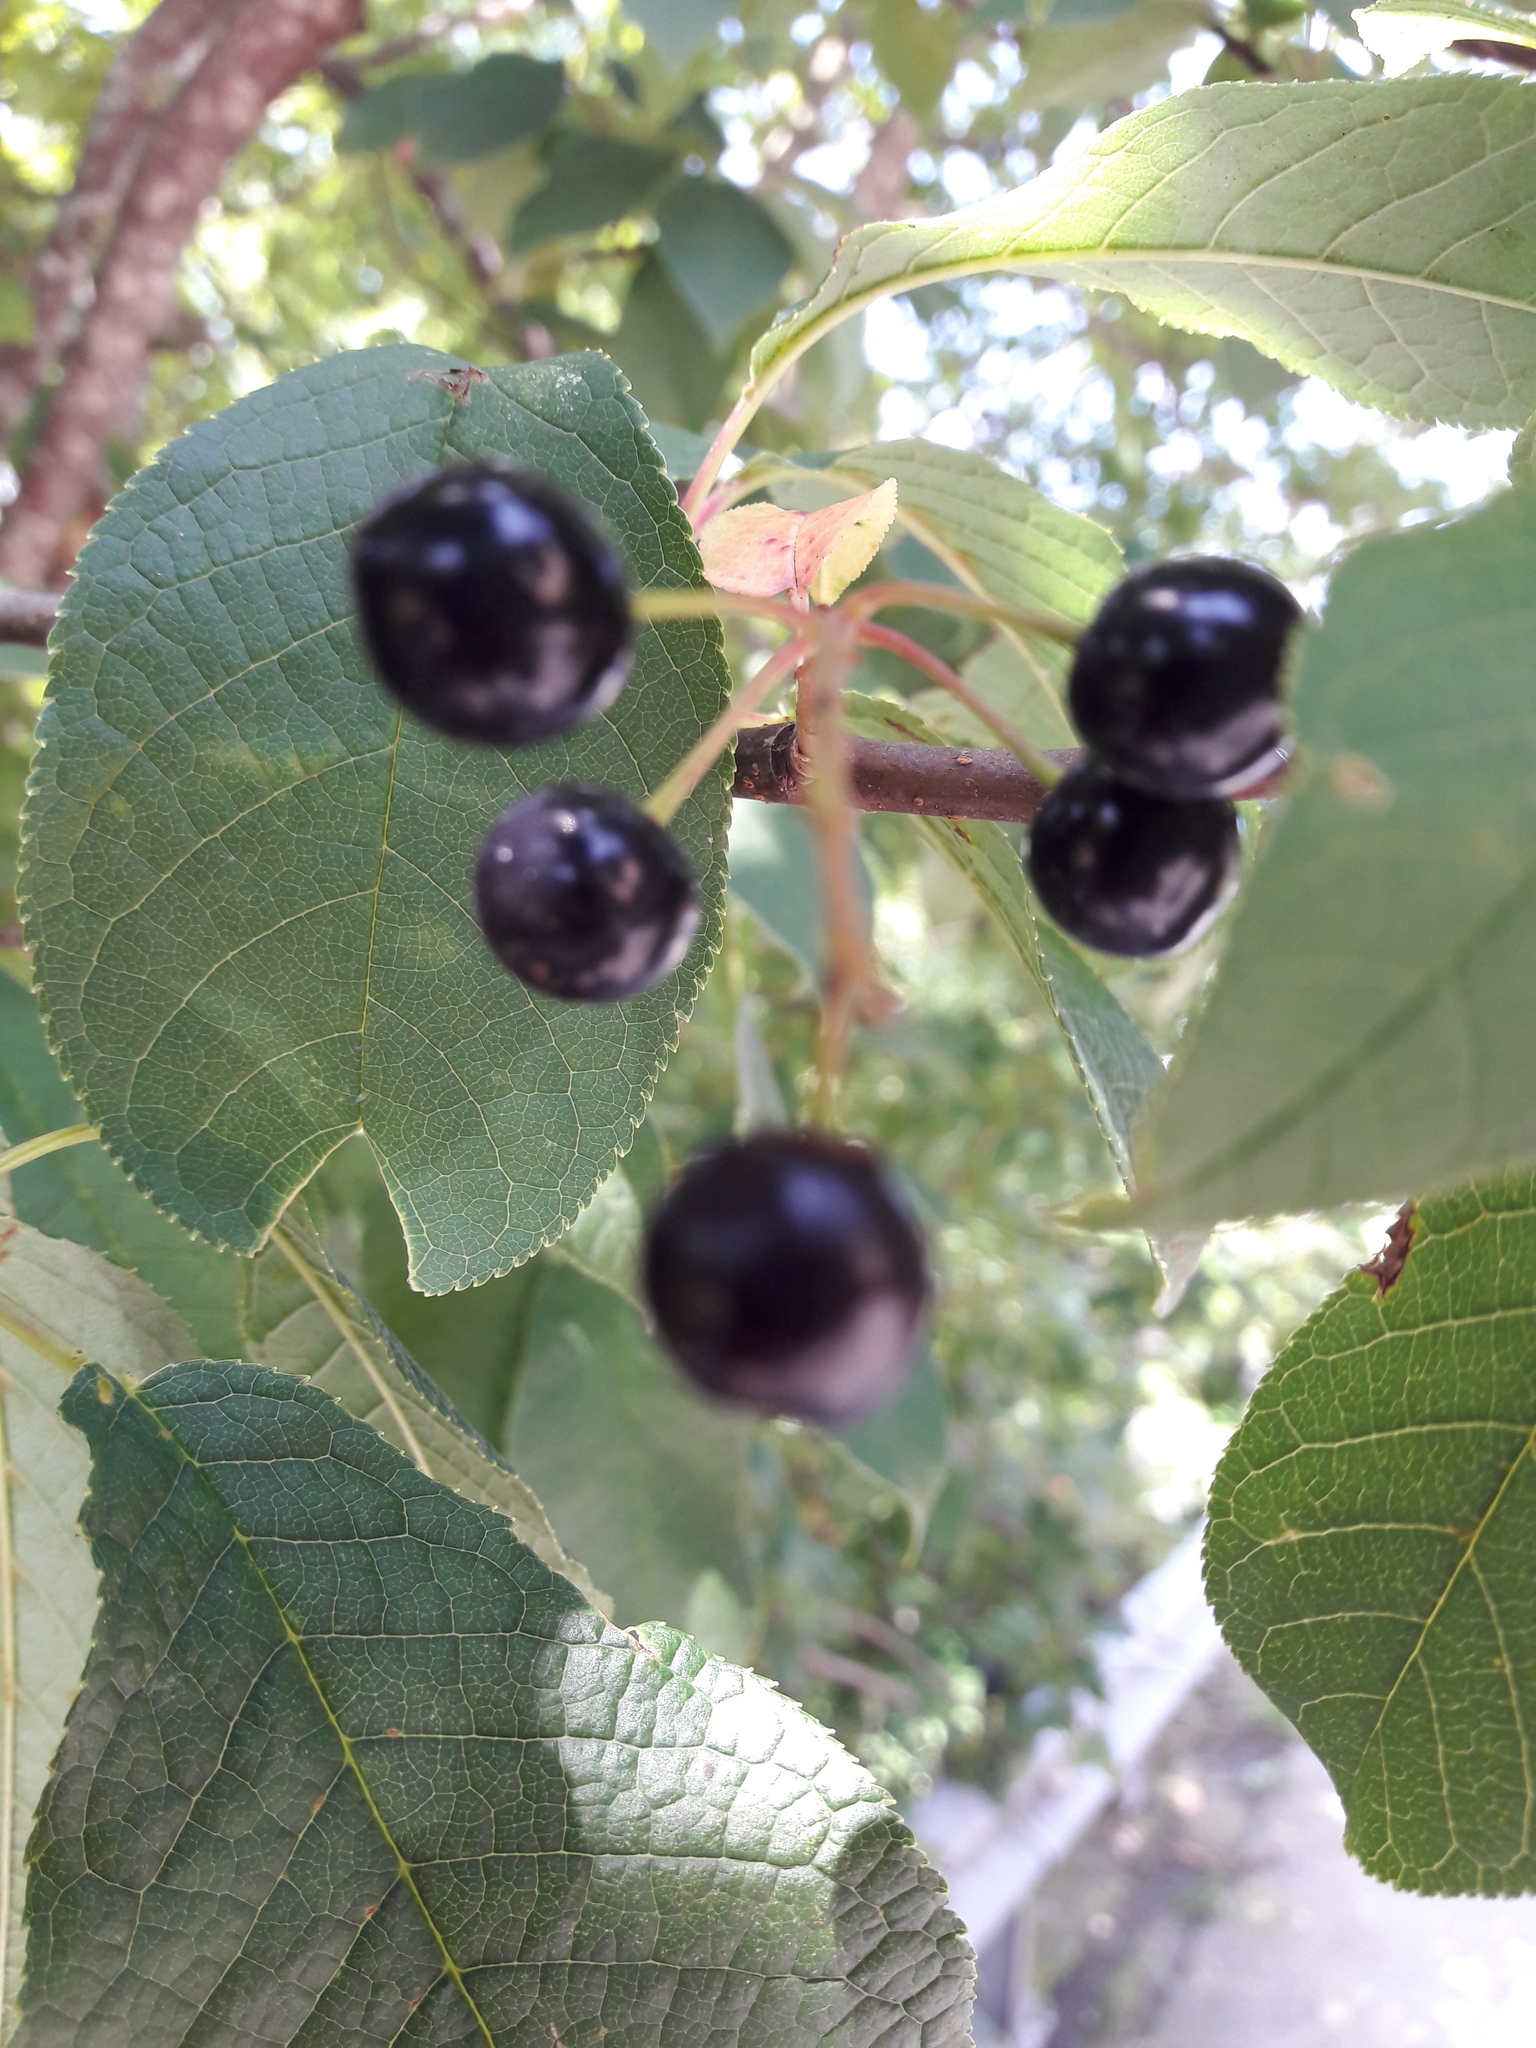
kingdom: Plantae
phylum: Tracheophyta
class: Magnoliopsida
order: Rosales
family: Rosaceae
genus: Prunus
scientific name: Prunus padus
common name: Bird cherry
